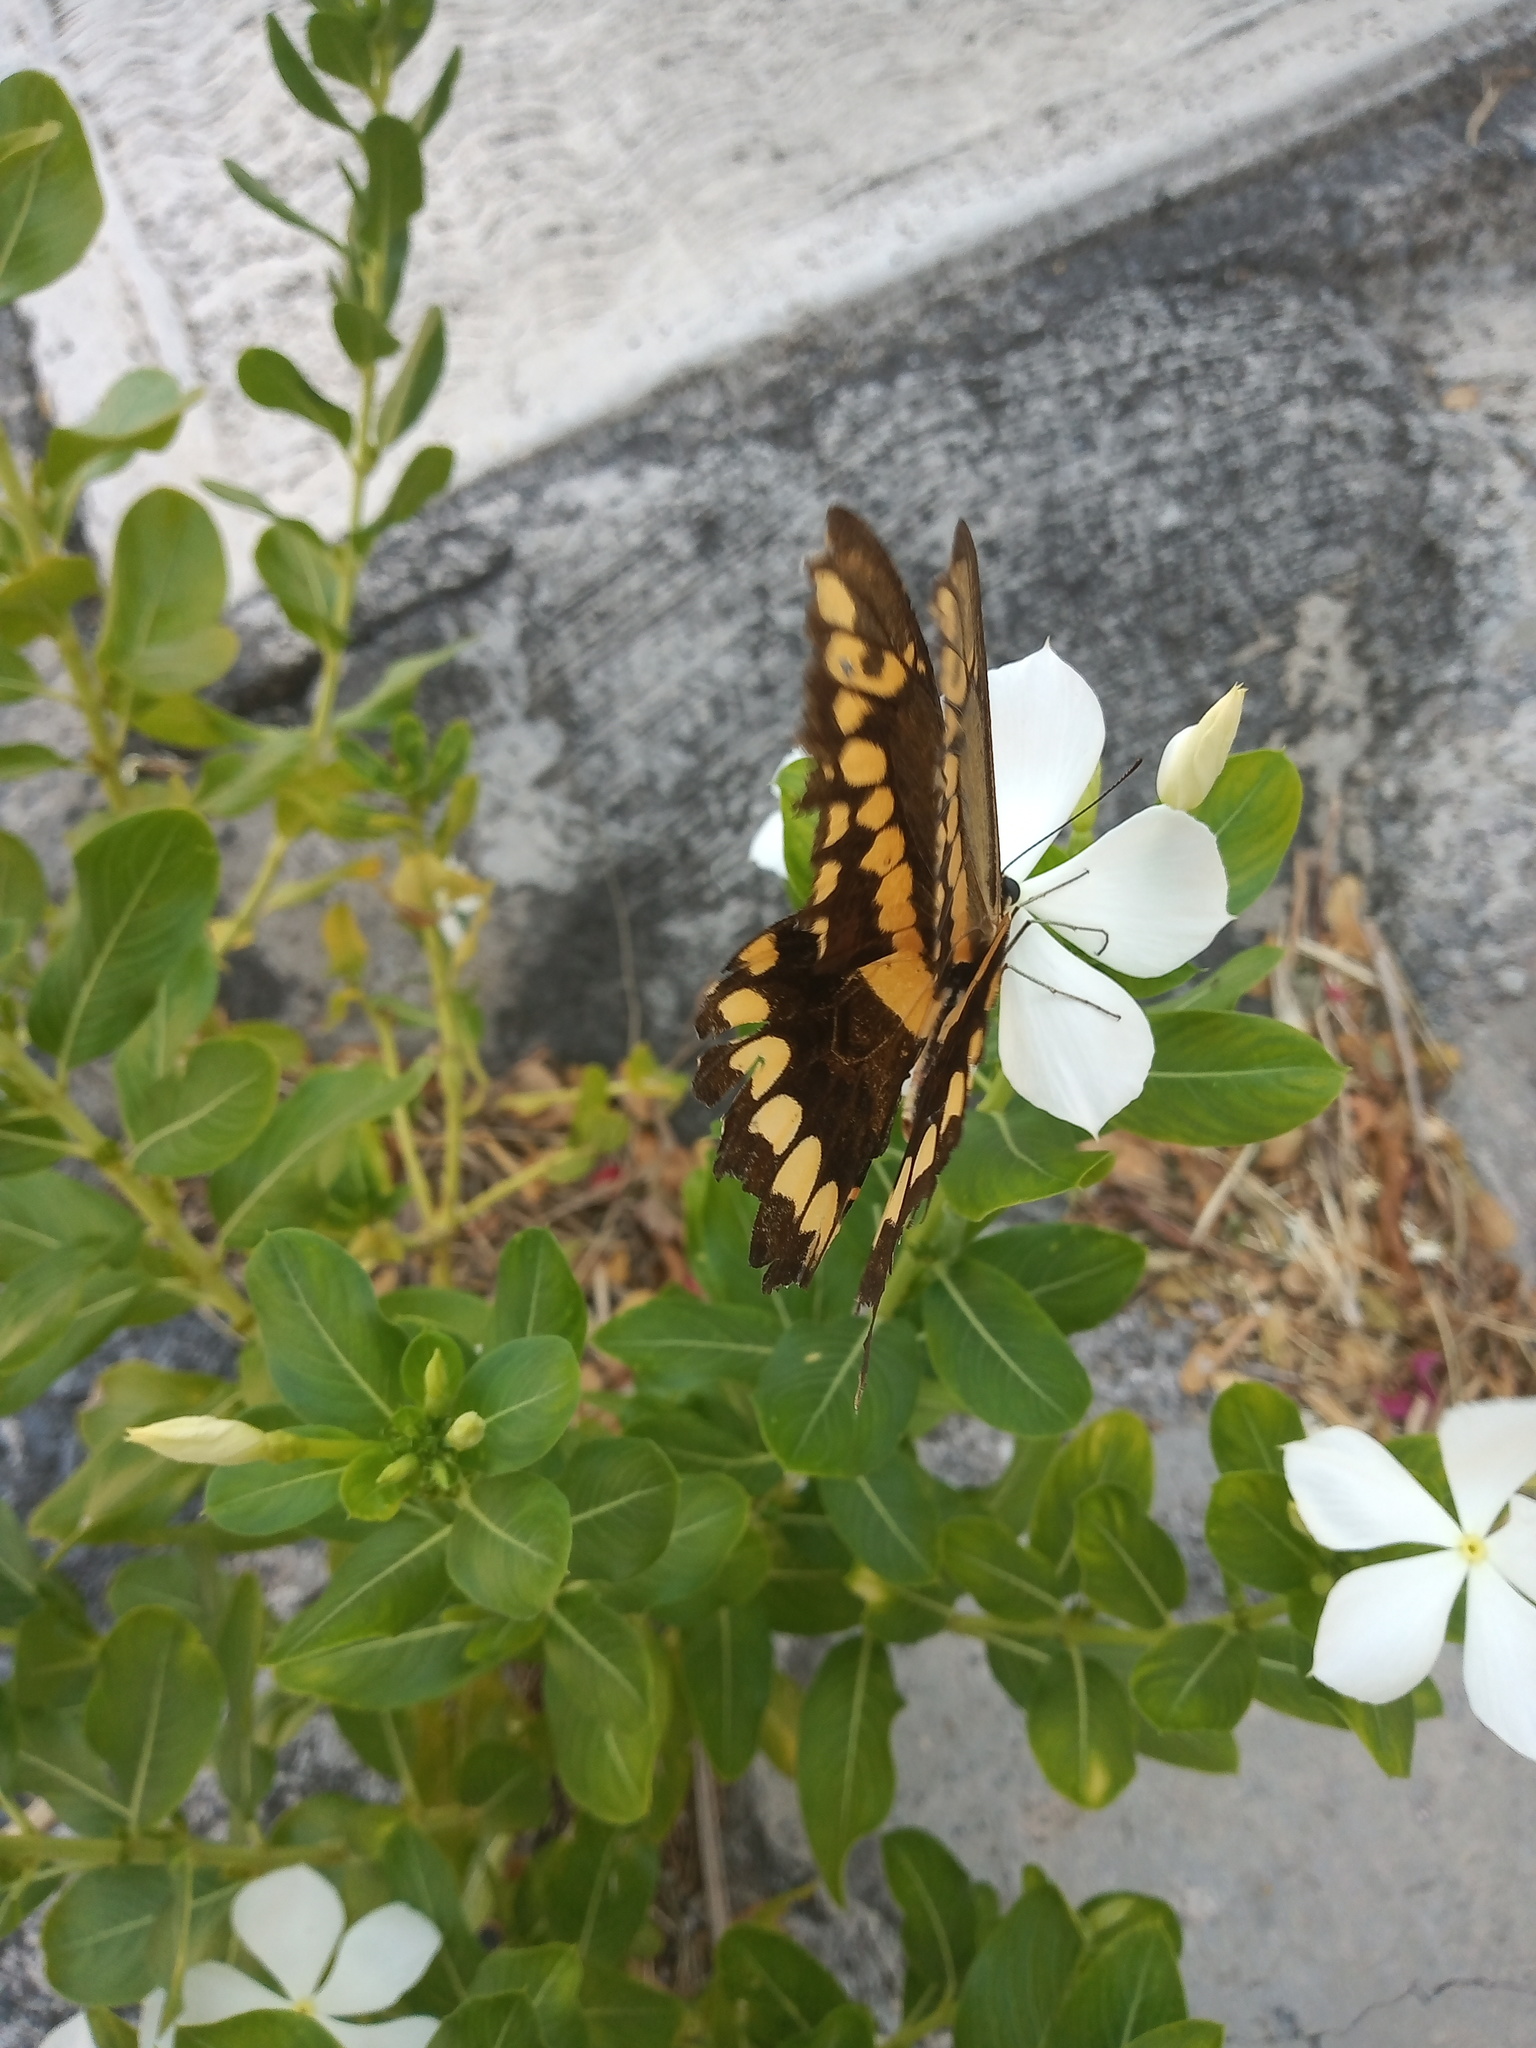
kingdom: Animalia
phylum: Arthropoda
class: Insecta
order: Lepidoptera
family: Papilionidae
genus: Papilio
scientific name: Papilio rumiko
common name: Western giant swallowtail
